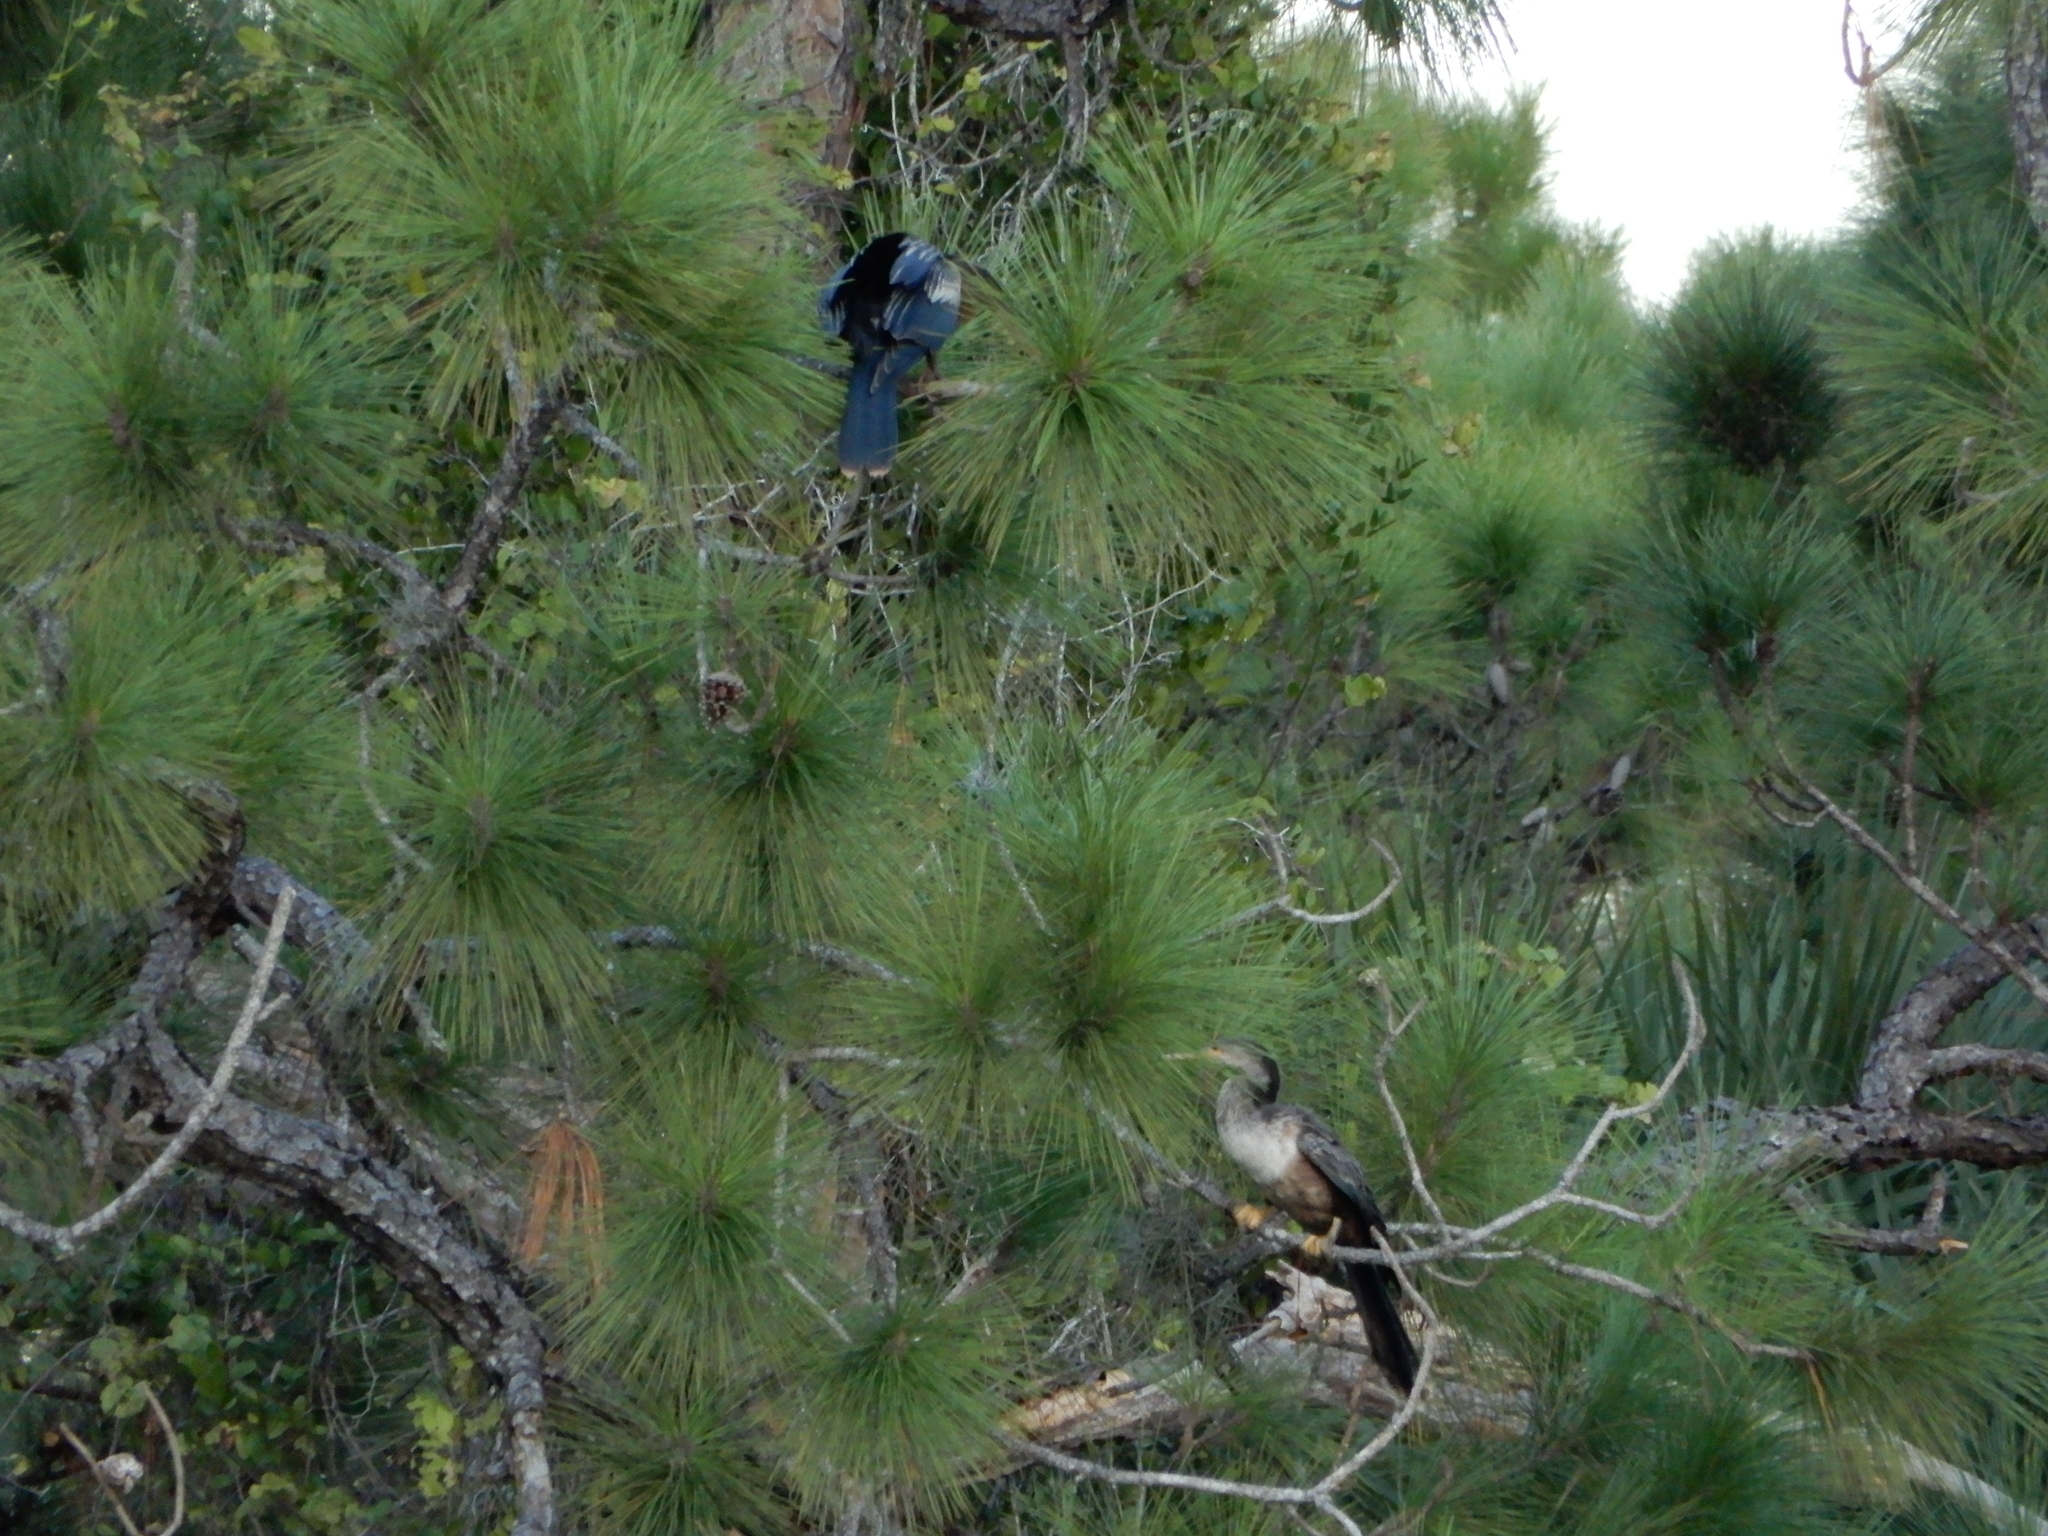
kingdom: Animalia
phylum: Chordata
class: Aves
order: Suliformes
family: Anhingidae
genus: Anhinga
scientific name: Anhinga anhinga
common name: Anhinga
